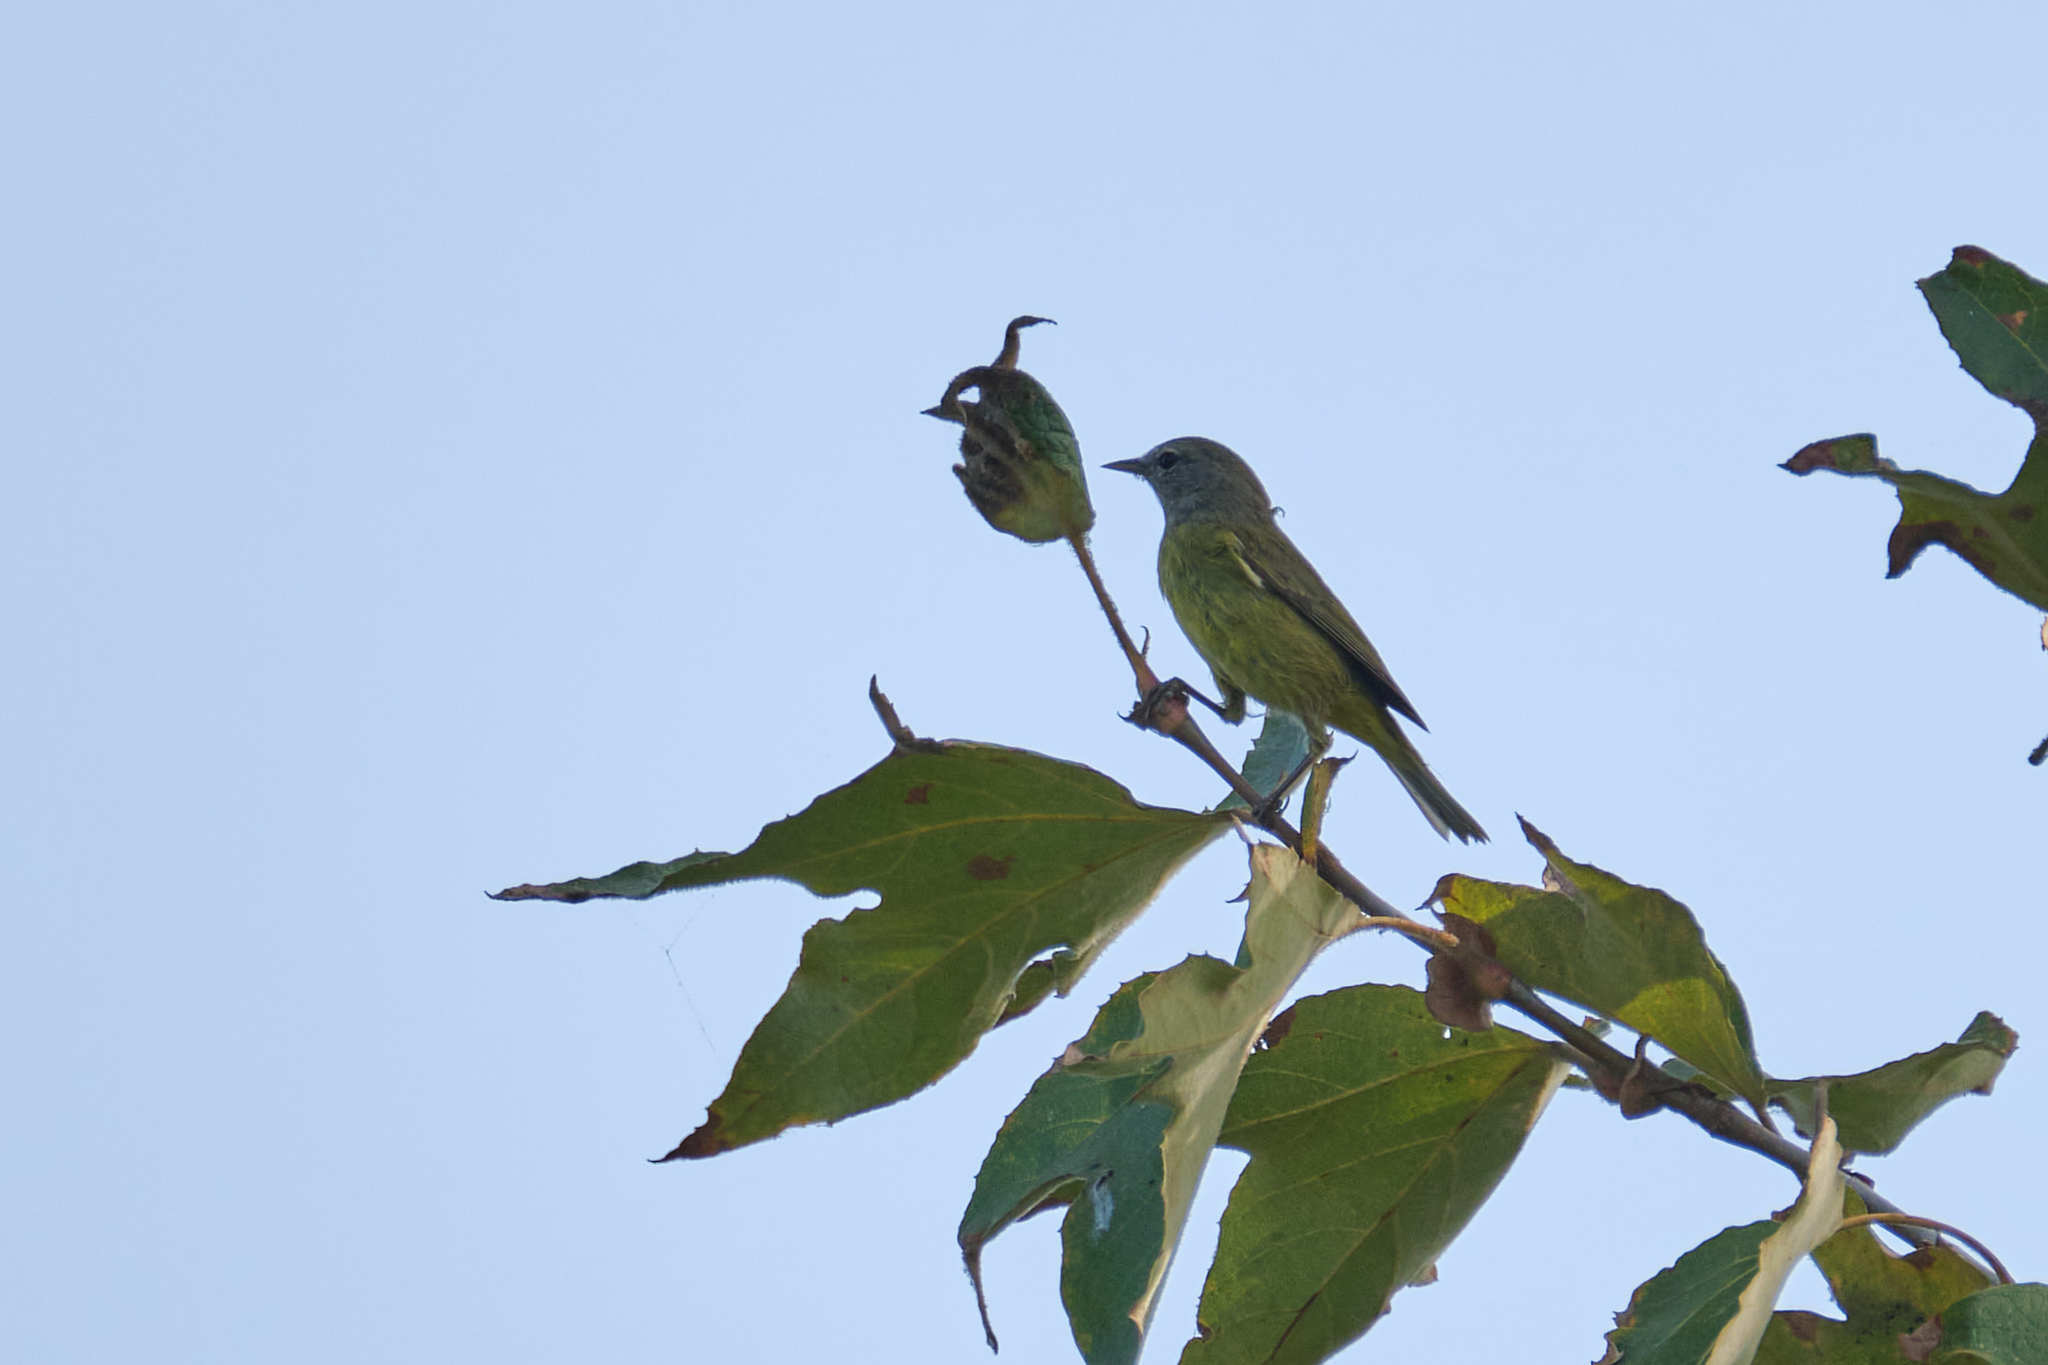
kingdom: Animalia
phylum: Chordata
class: Aves
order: Passeriformes
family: Parulidae
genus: Leiothlypis
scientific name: Leiothlypis celata
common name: Orange-crowned warbler
